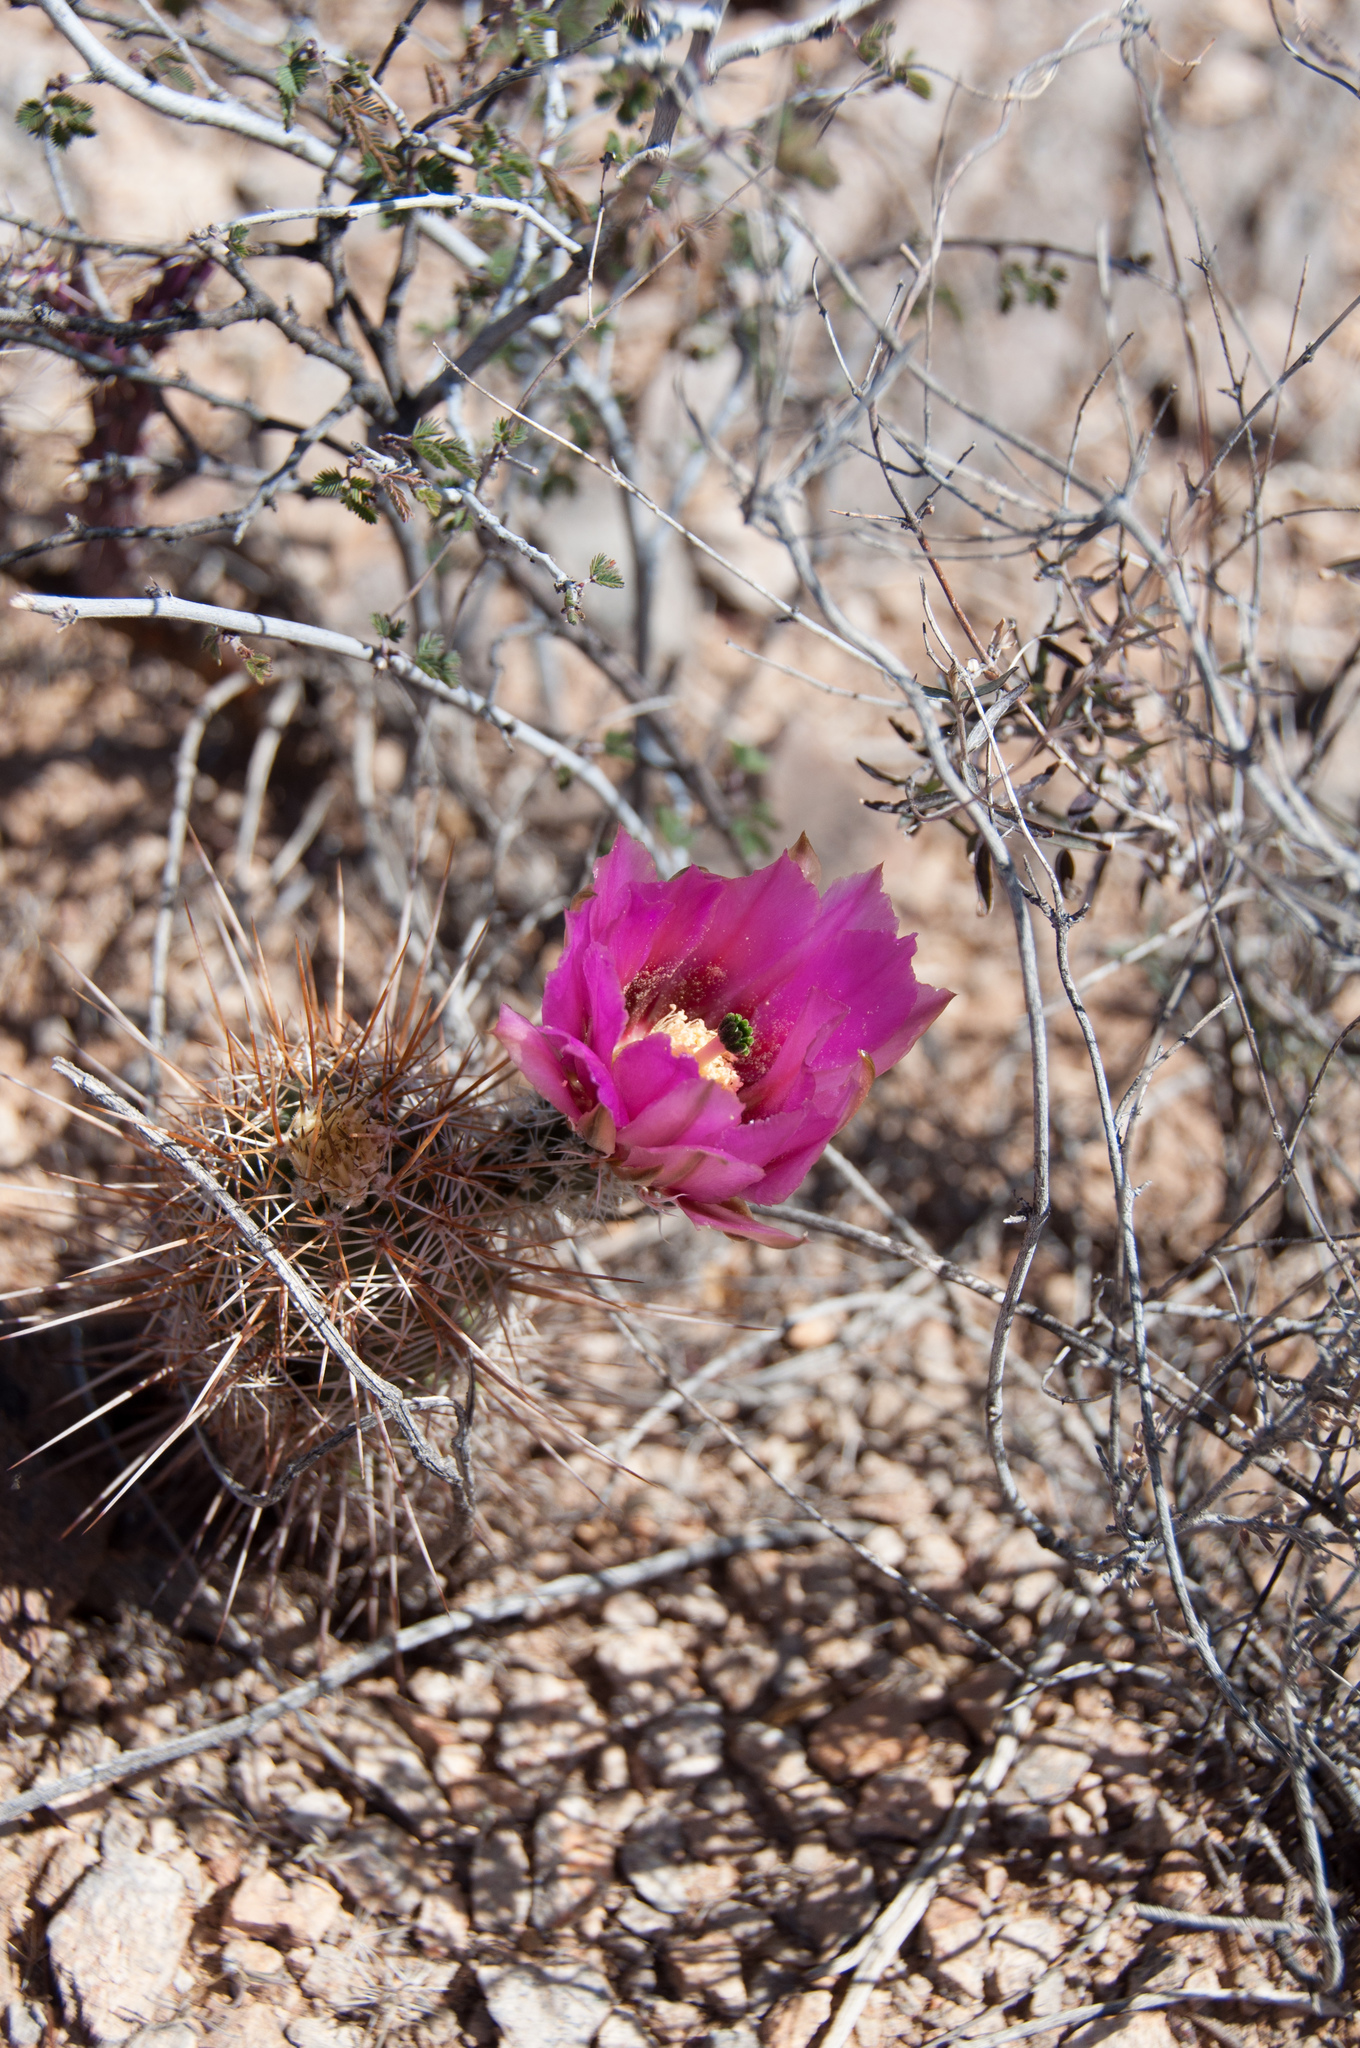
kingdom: Plantae
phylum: Tracheophyta
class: Magnoliopsida
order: Caryophyllales
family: Cactaceae
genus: Echinocereus
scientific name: Echinocereus fasciculatus
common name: Bundle hedgehog
